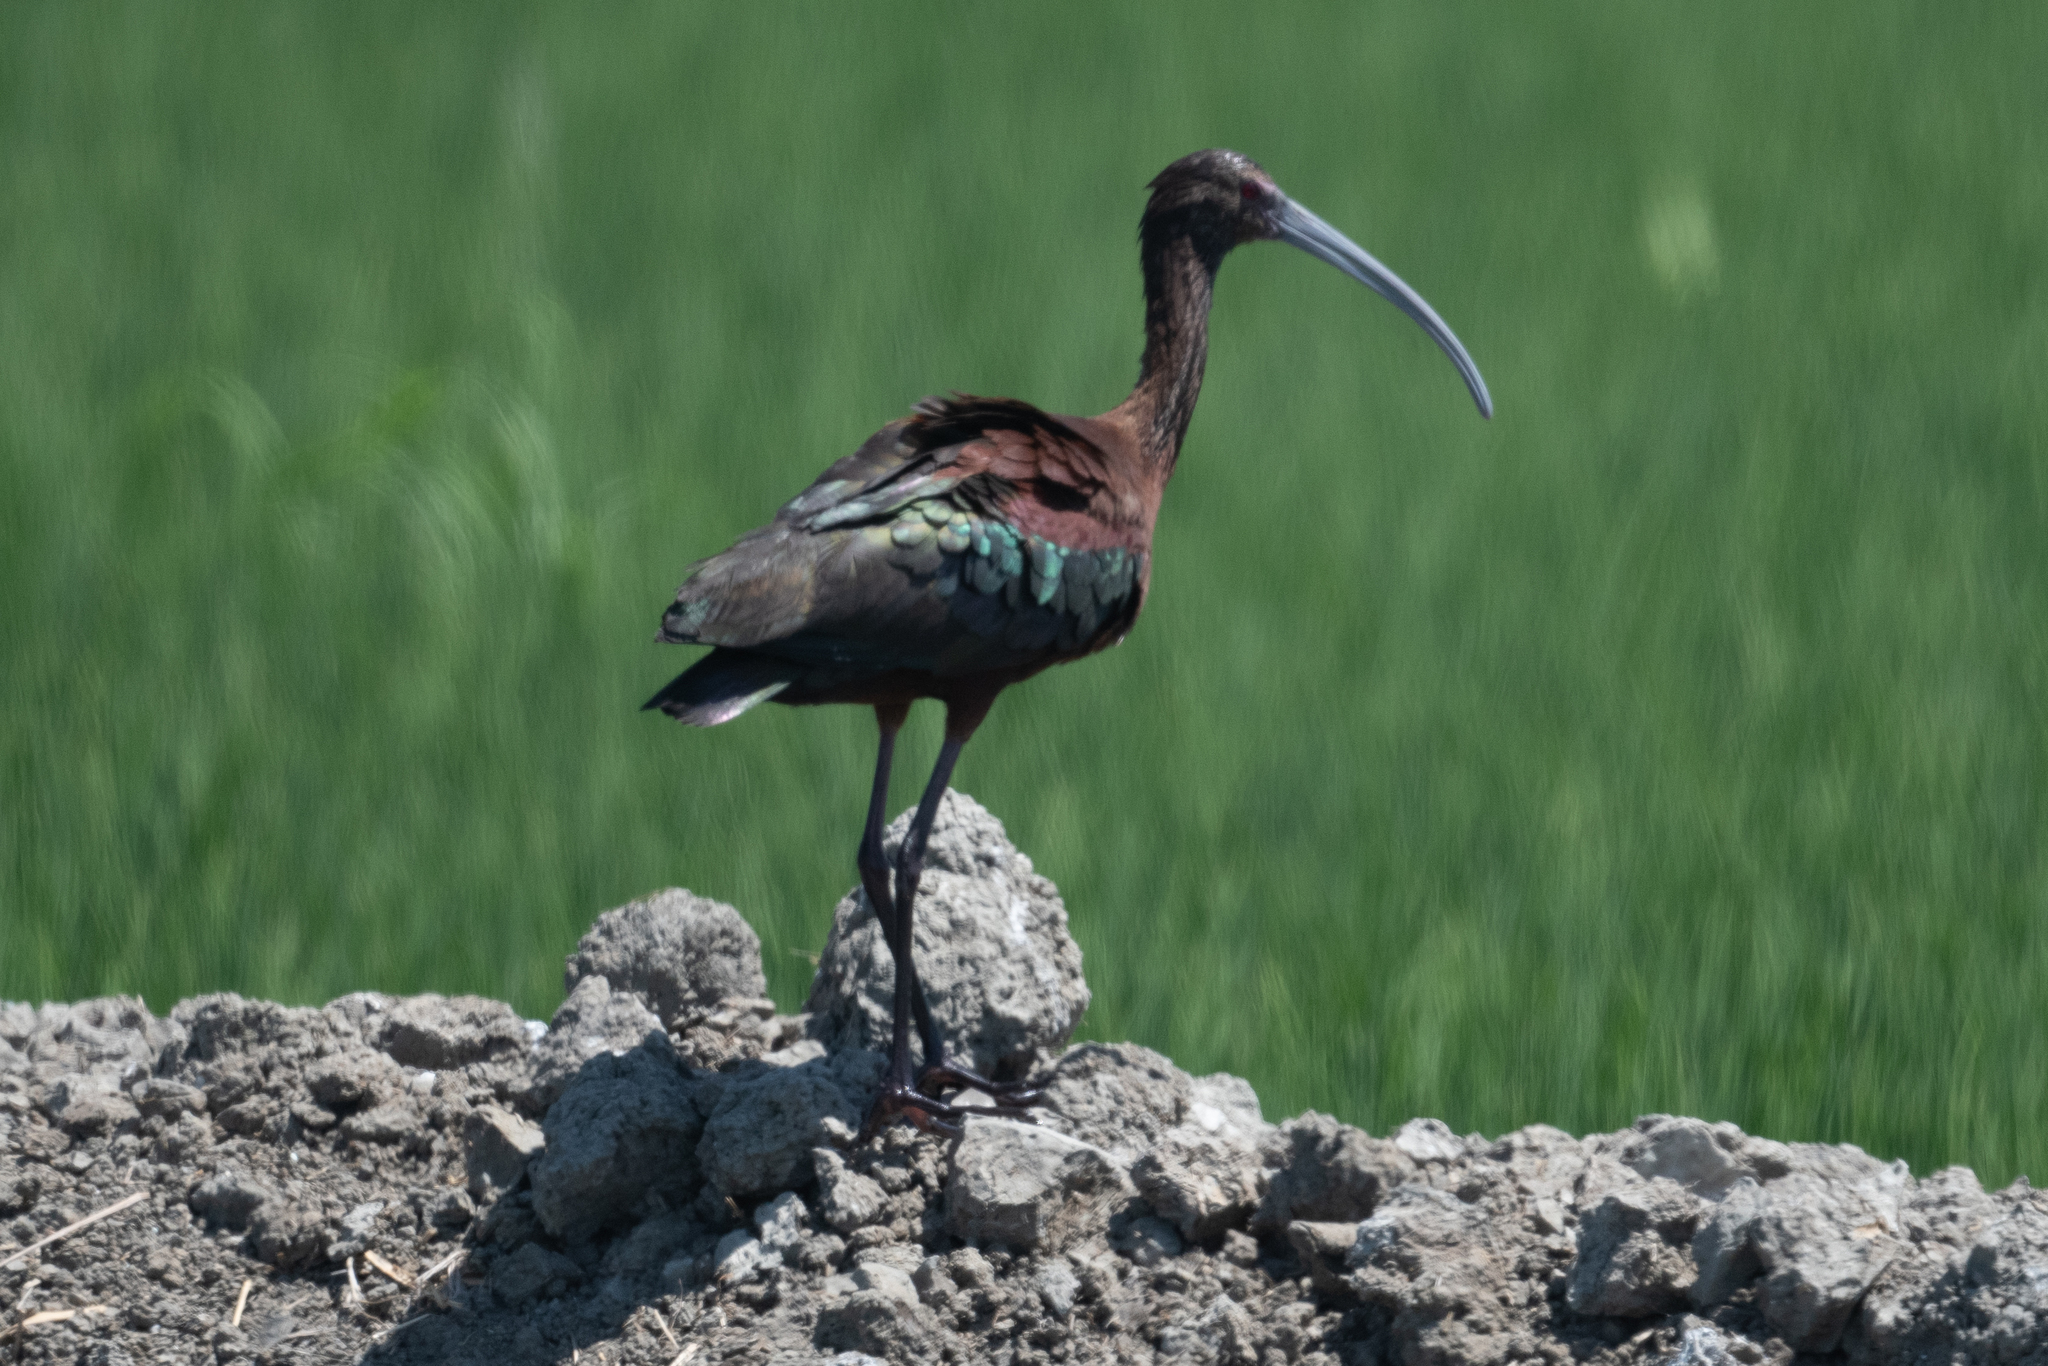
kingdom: Animalia
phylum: Chordata
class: Aves
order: Pelecaniformes
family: Threskiornithidae
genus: Plegadis
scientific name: Plegadis chihi
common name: White-faced ibis
